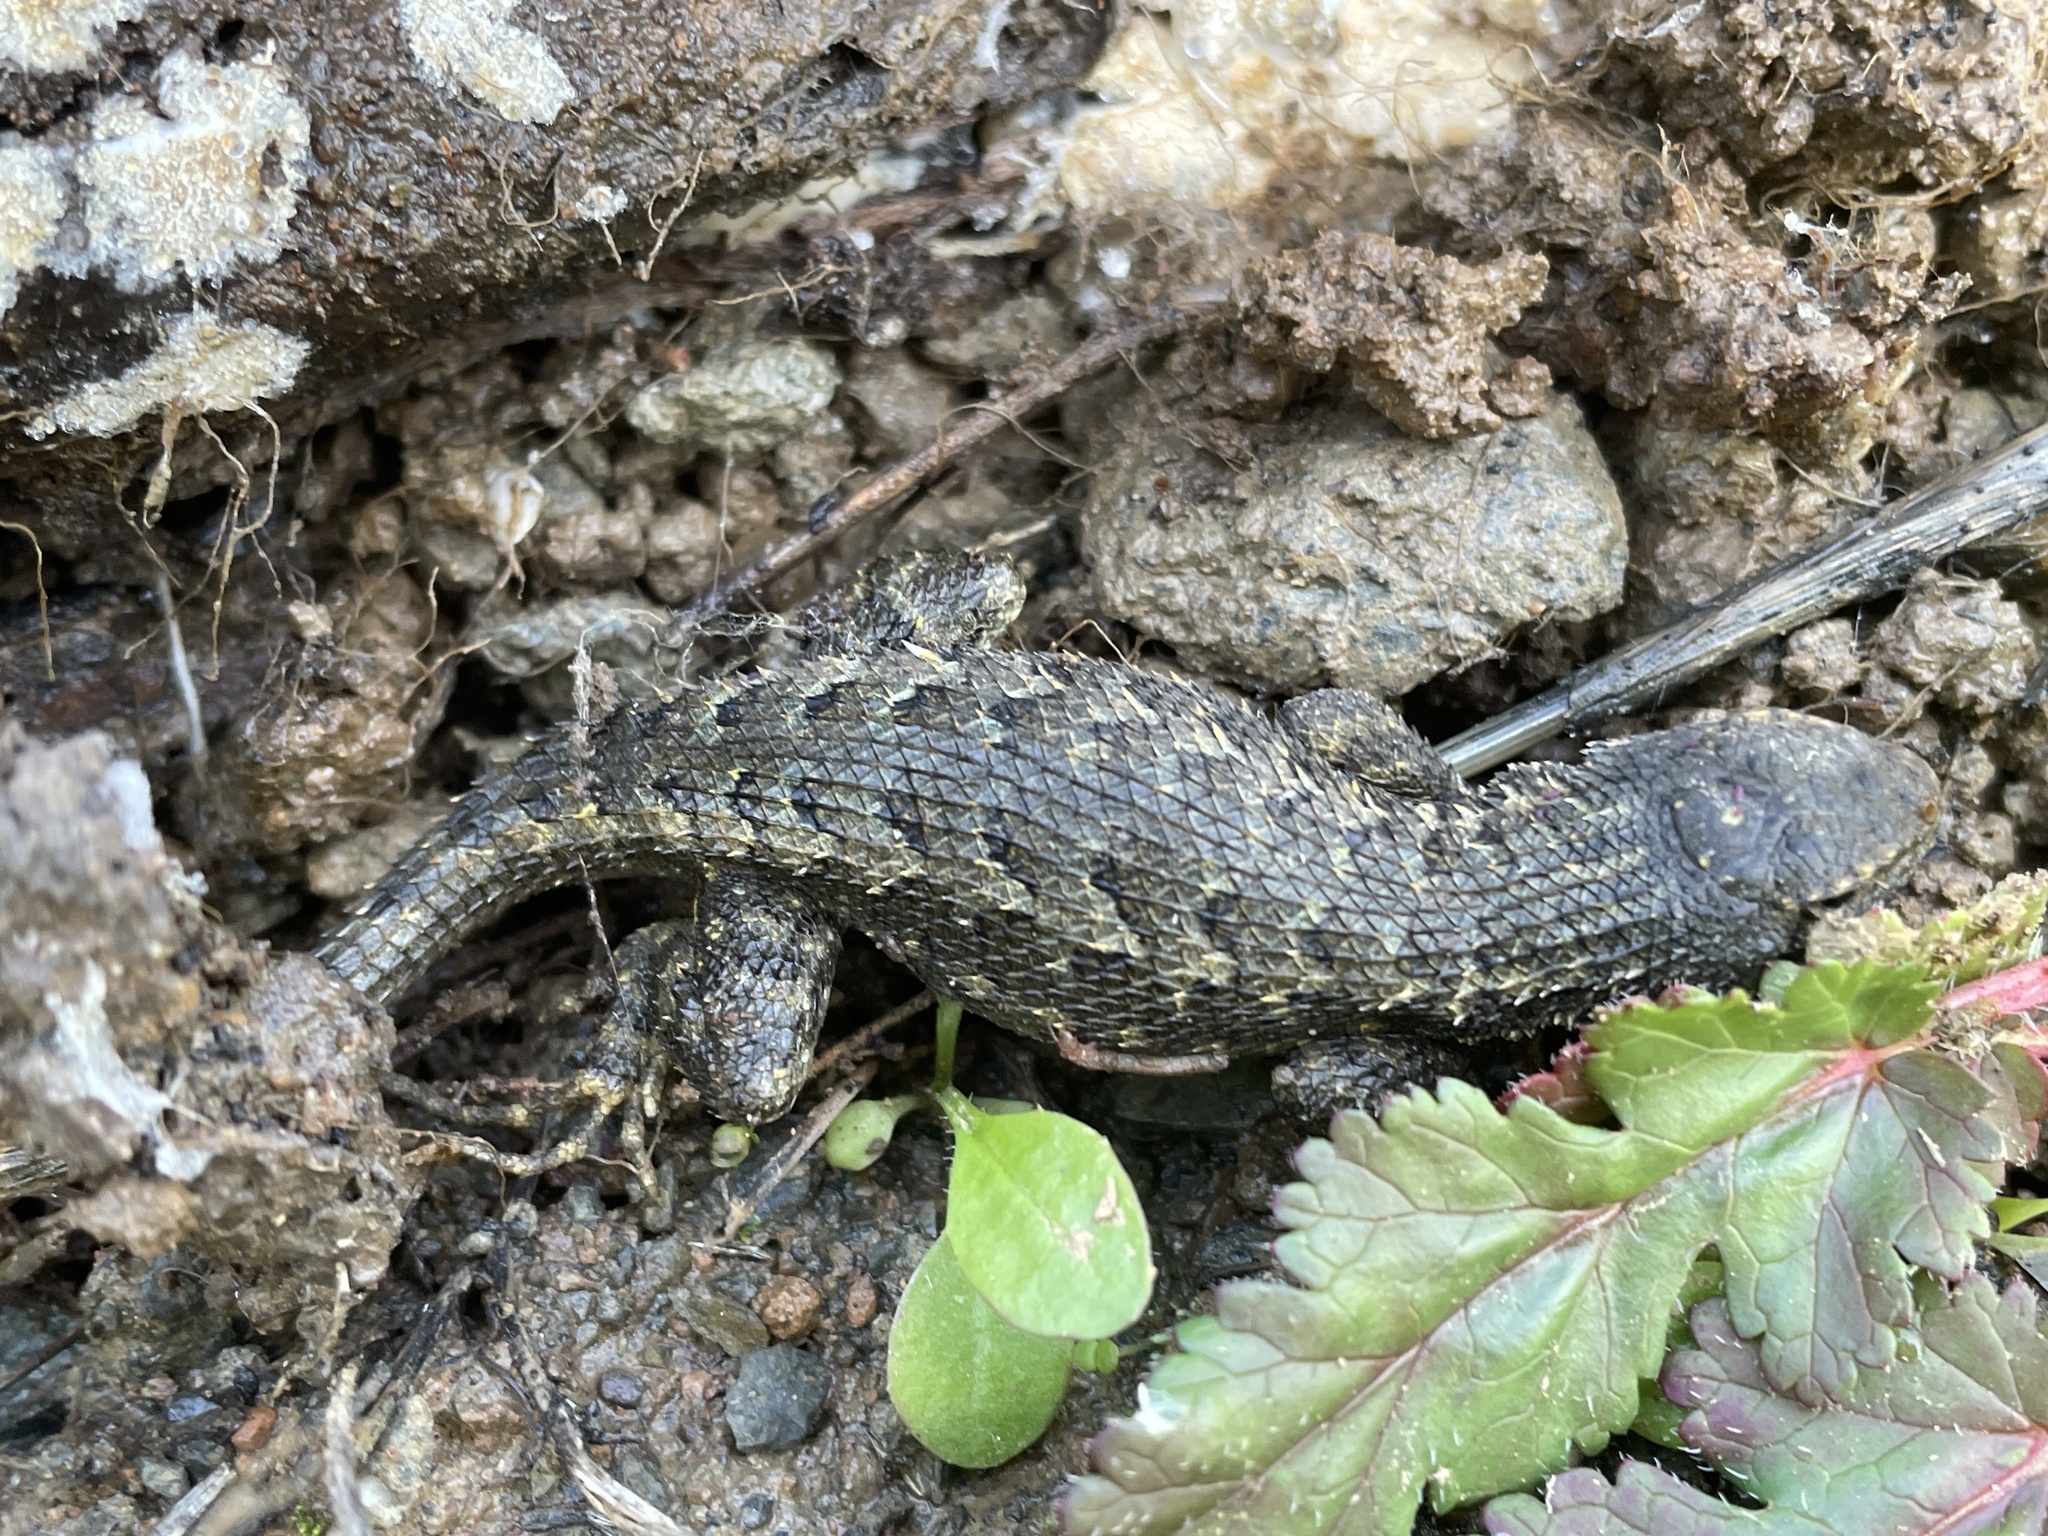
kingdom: Animalia
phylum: Chordata
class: Squamata
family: Phrynosomatidae
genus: Sceloporus
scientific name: Sceloporus occidentalis
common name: Western fence lizard
